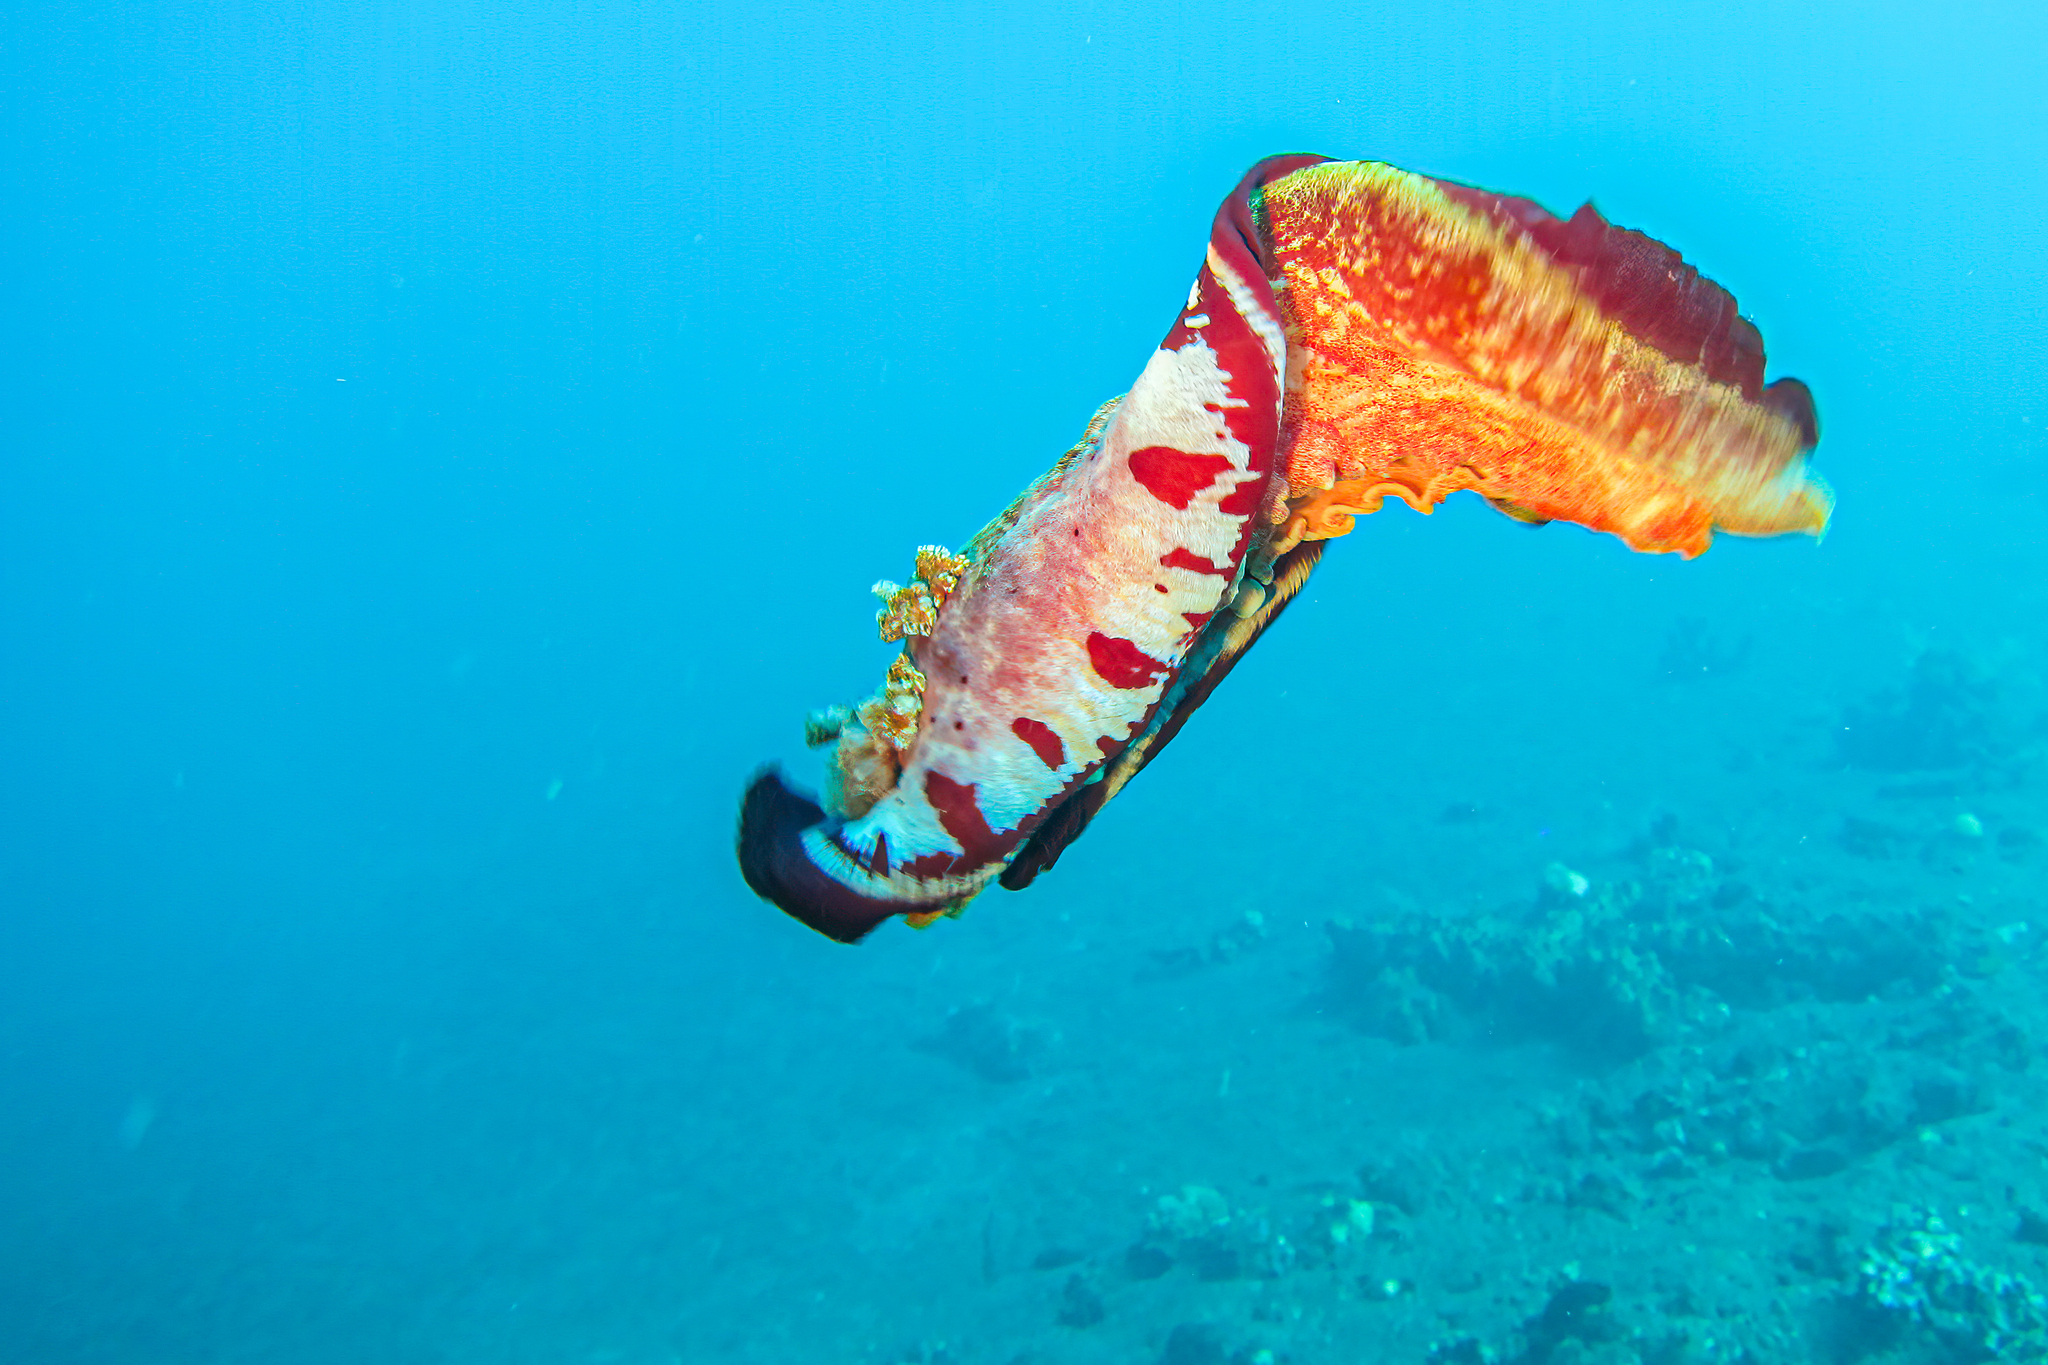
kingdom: Animalia
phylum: Mollusca
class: Gastropoda
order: Nudibranchia
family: Hexabranchidae
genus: Hexabranchus
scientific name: Hexabranchus sanguineus
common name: Spanish dancer
